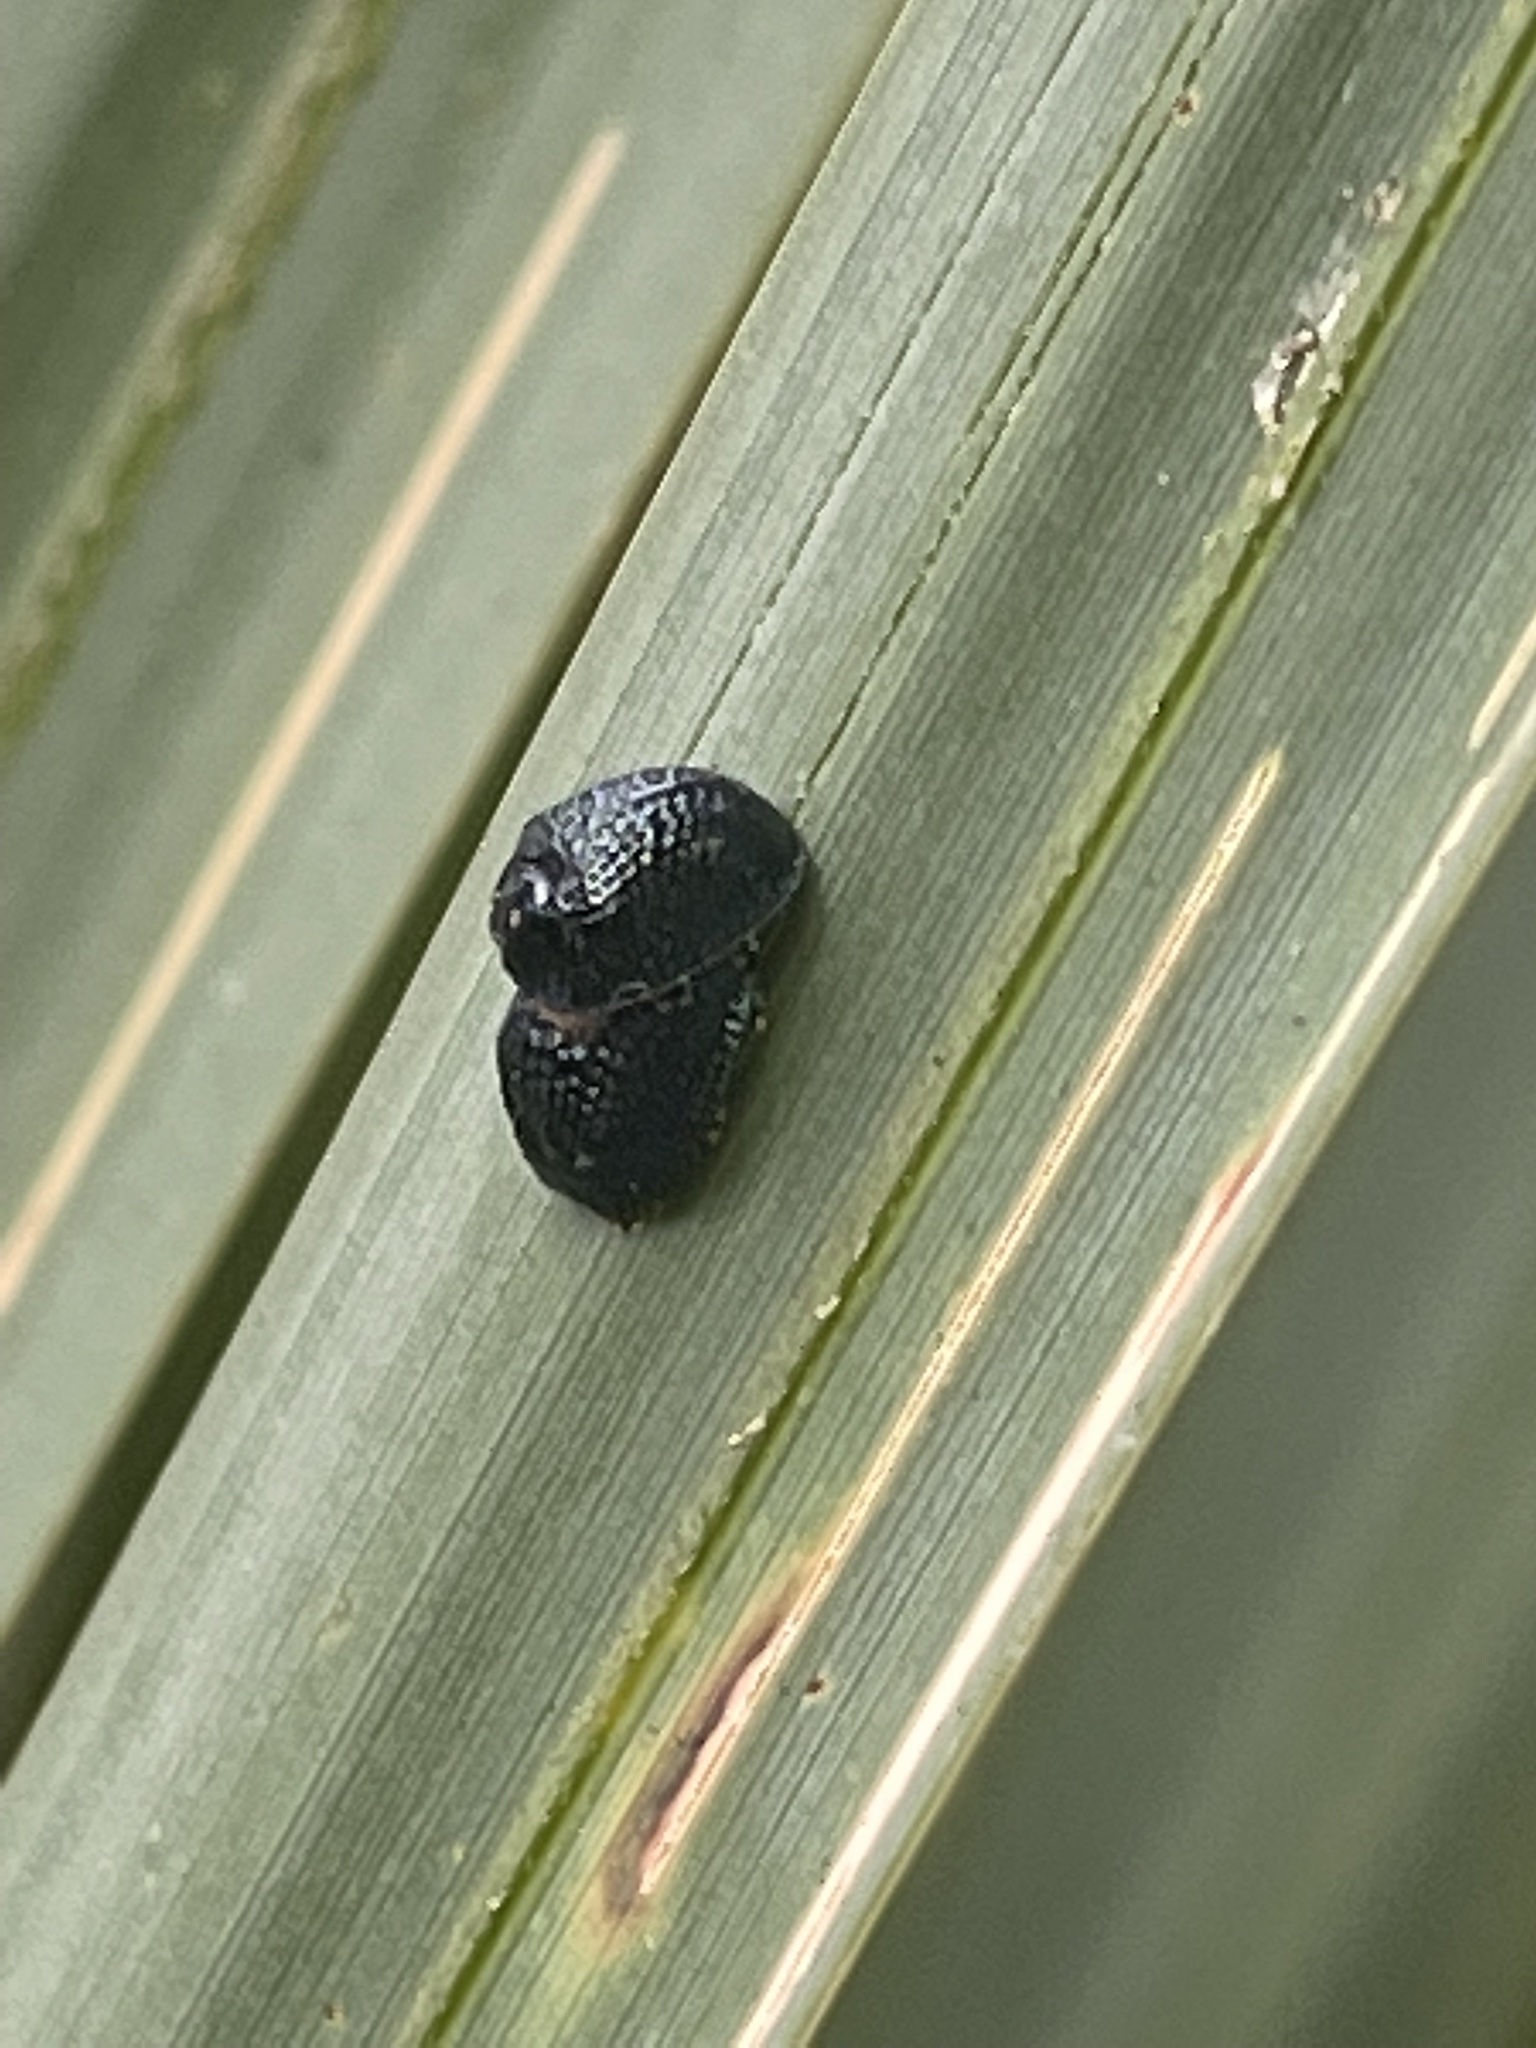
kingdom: Animalia
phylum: Arthropoda
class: Insecta
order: Coleoptera
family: Chrysomelidae
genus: Hemisphaerota
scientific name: Hemisphaerota cyanea
